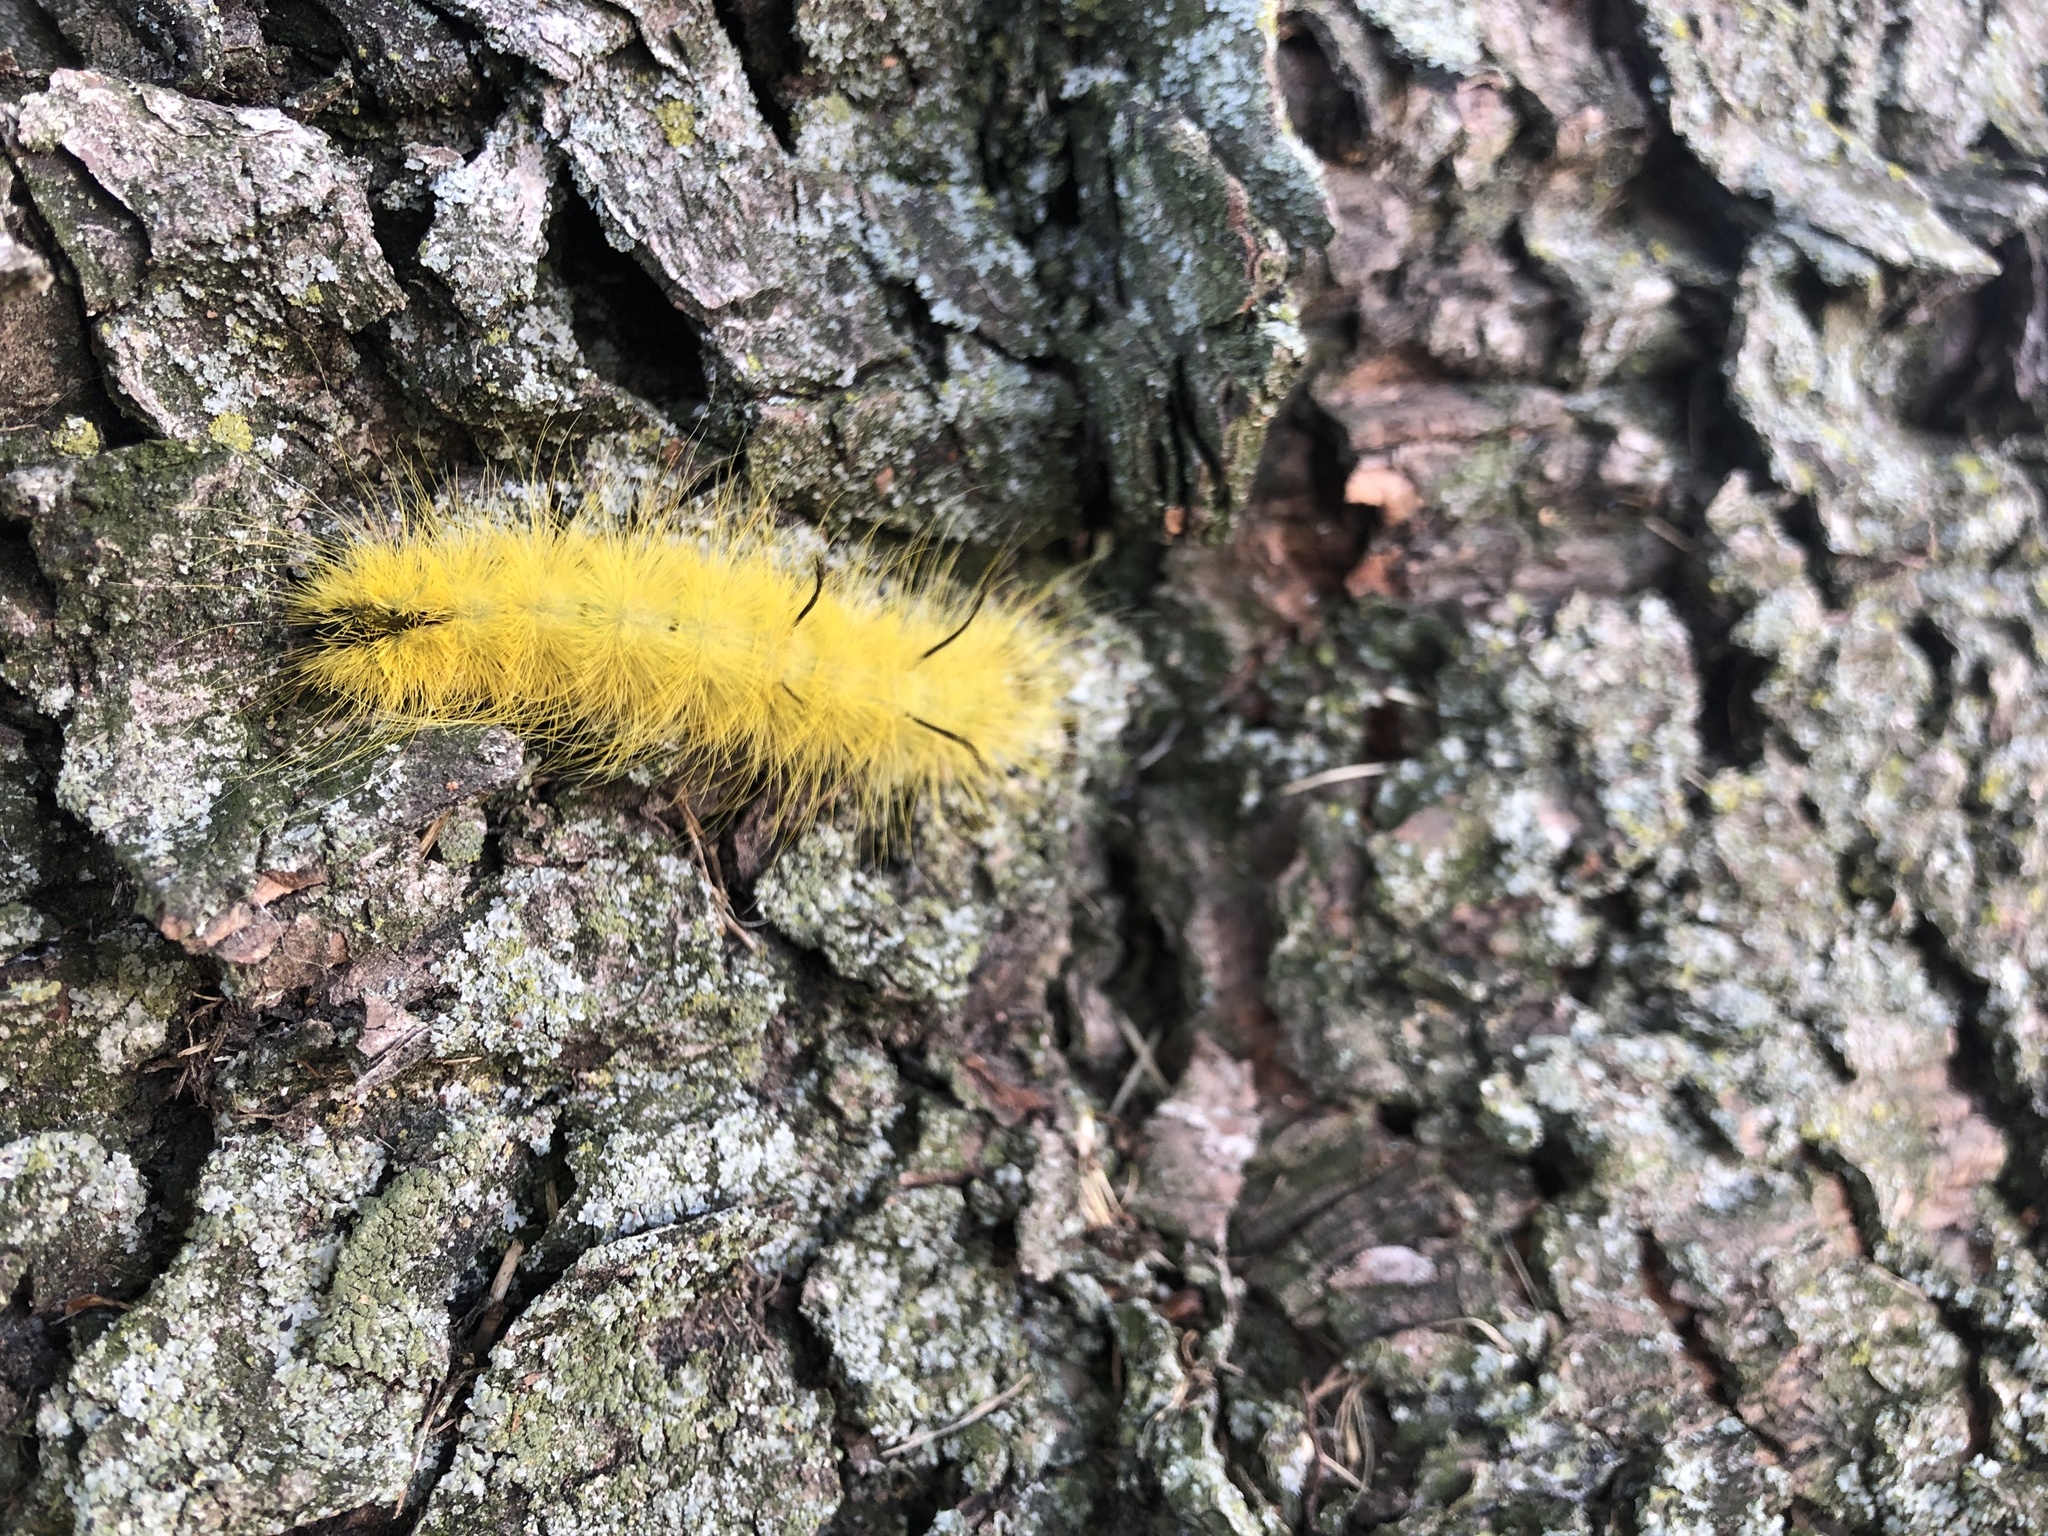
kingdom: Animalia
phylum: Arthropoda
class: Insecta
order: Lepidoptera
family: Noctuidae
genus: Acronicta
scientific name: Acronicta americana
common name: American dagger
